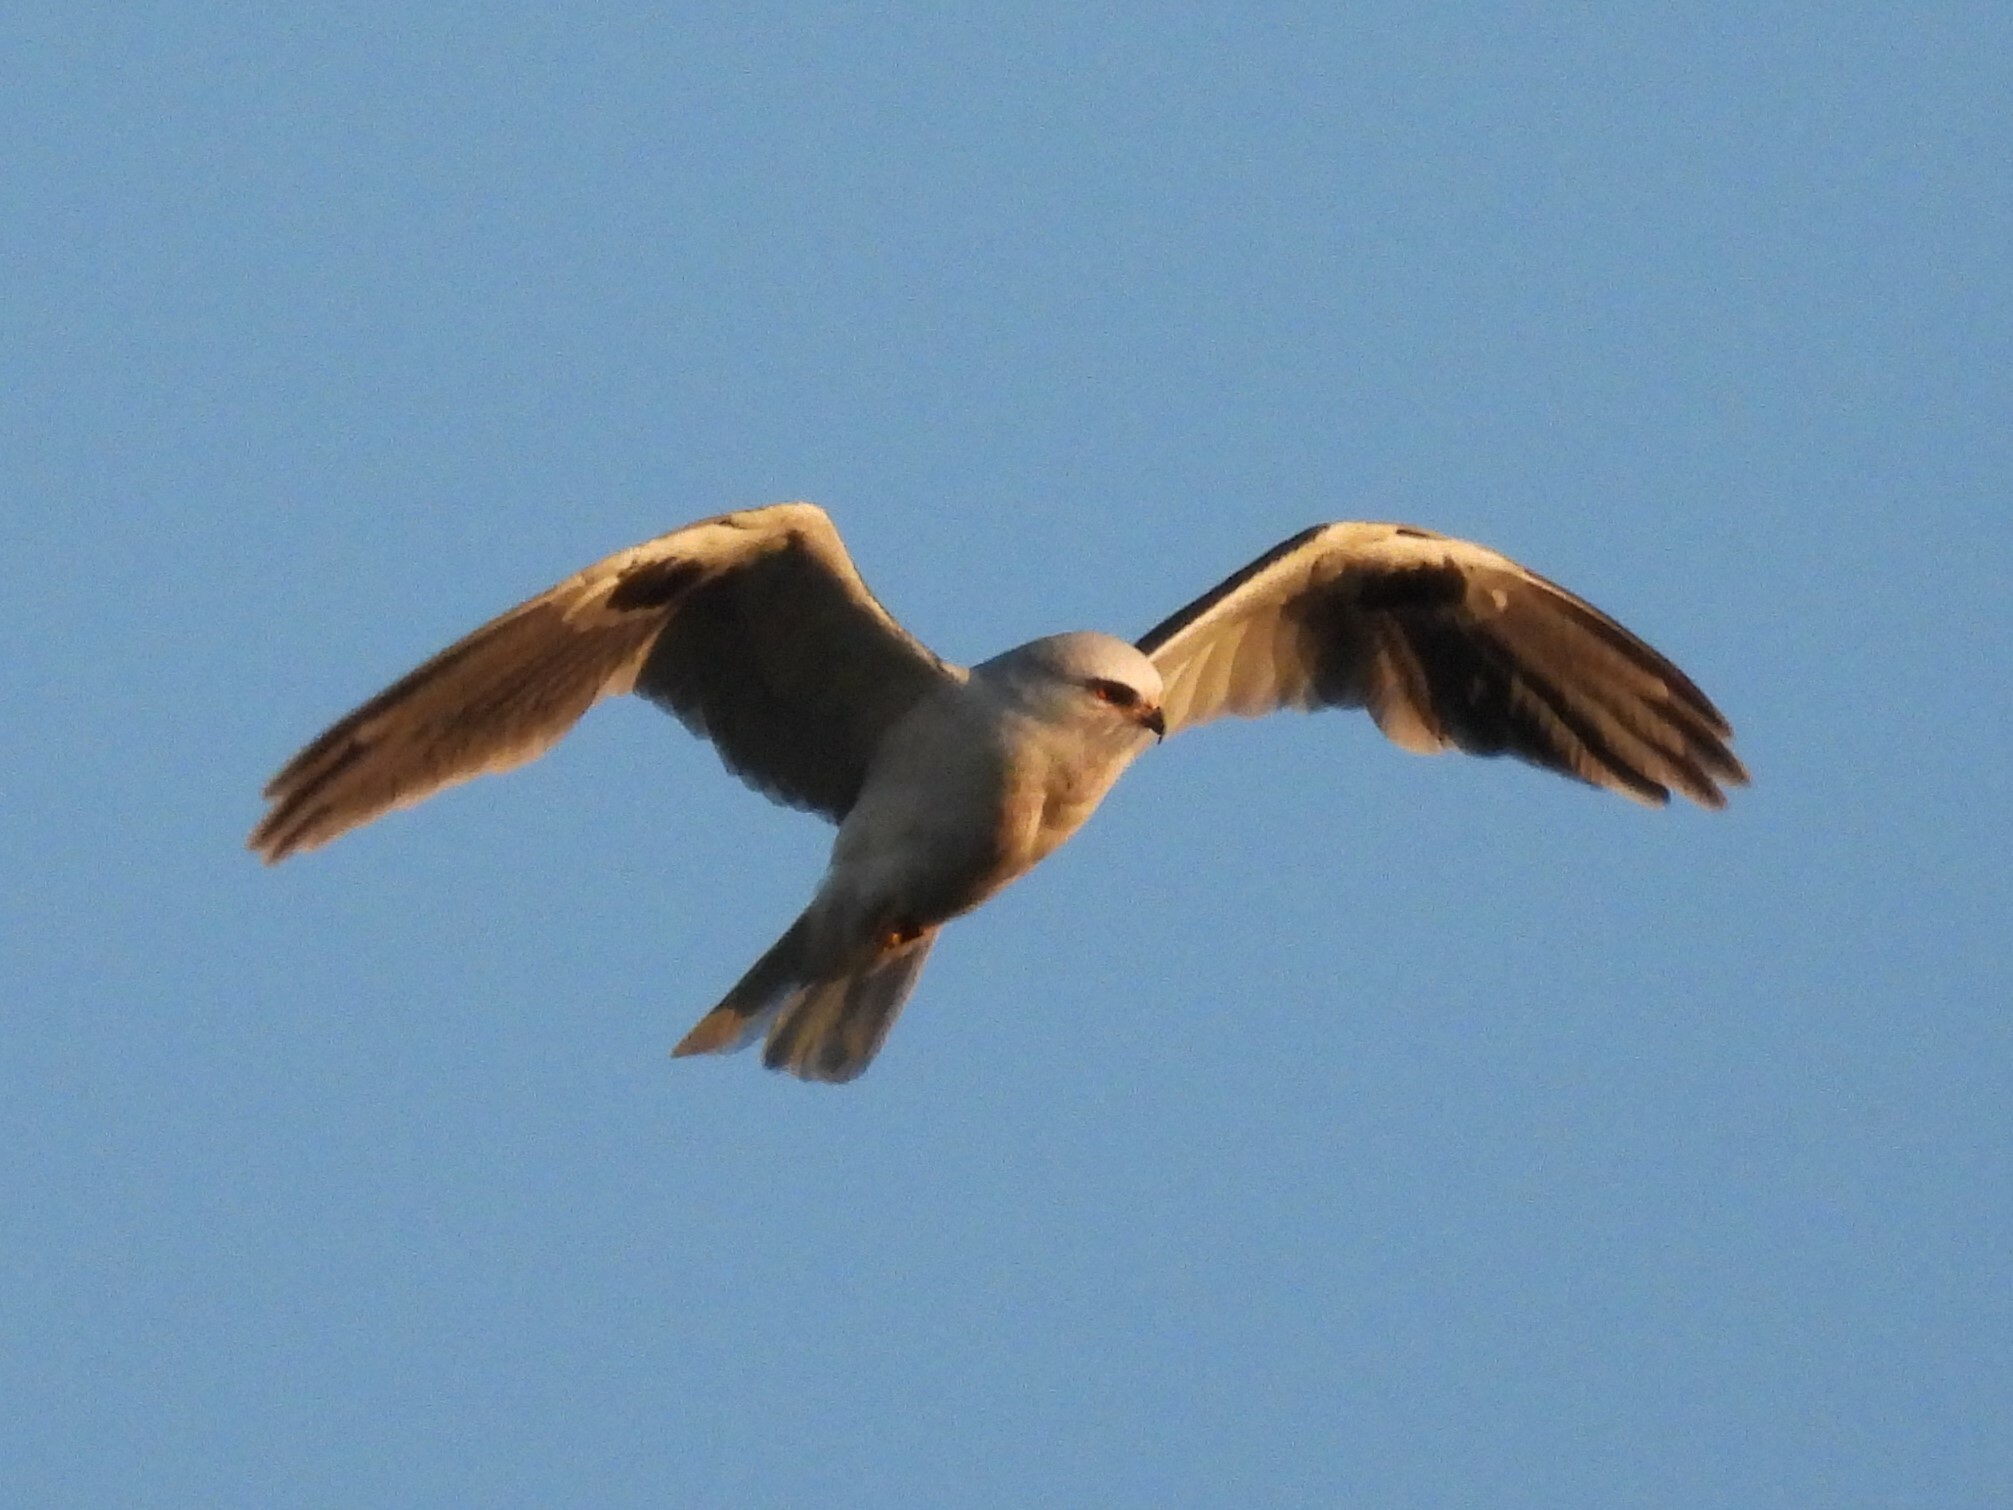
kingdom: Animalia
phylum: Chordata
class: Aves
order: Accipitriformes
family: Accipitridae
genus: Elanus
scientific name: Elanus leucurus
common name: White-tailed kite
